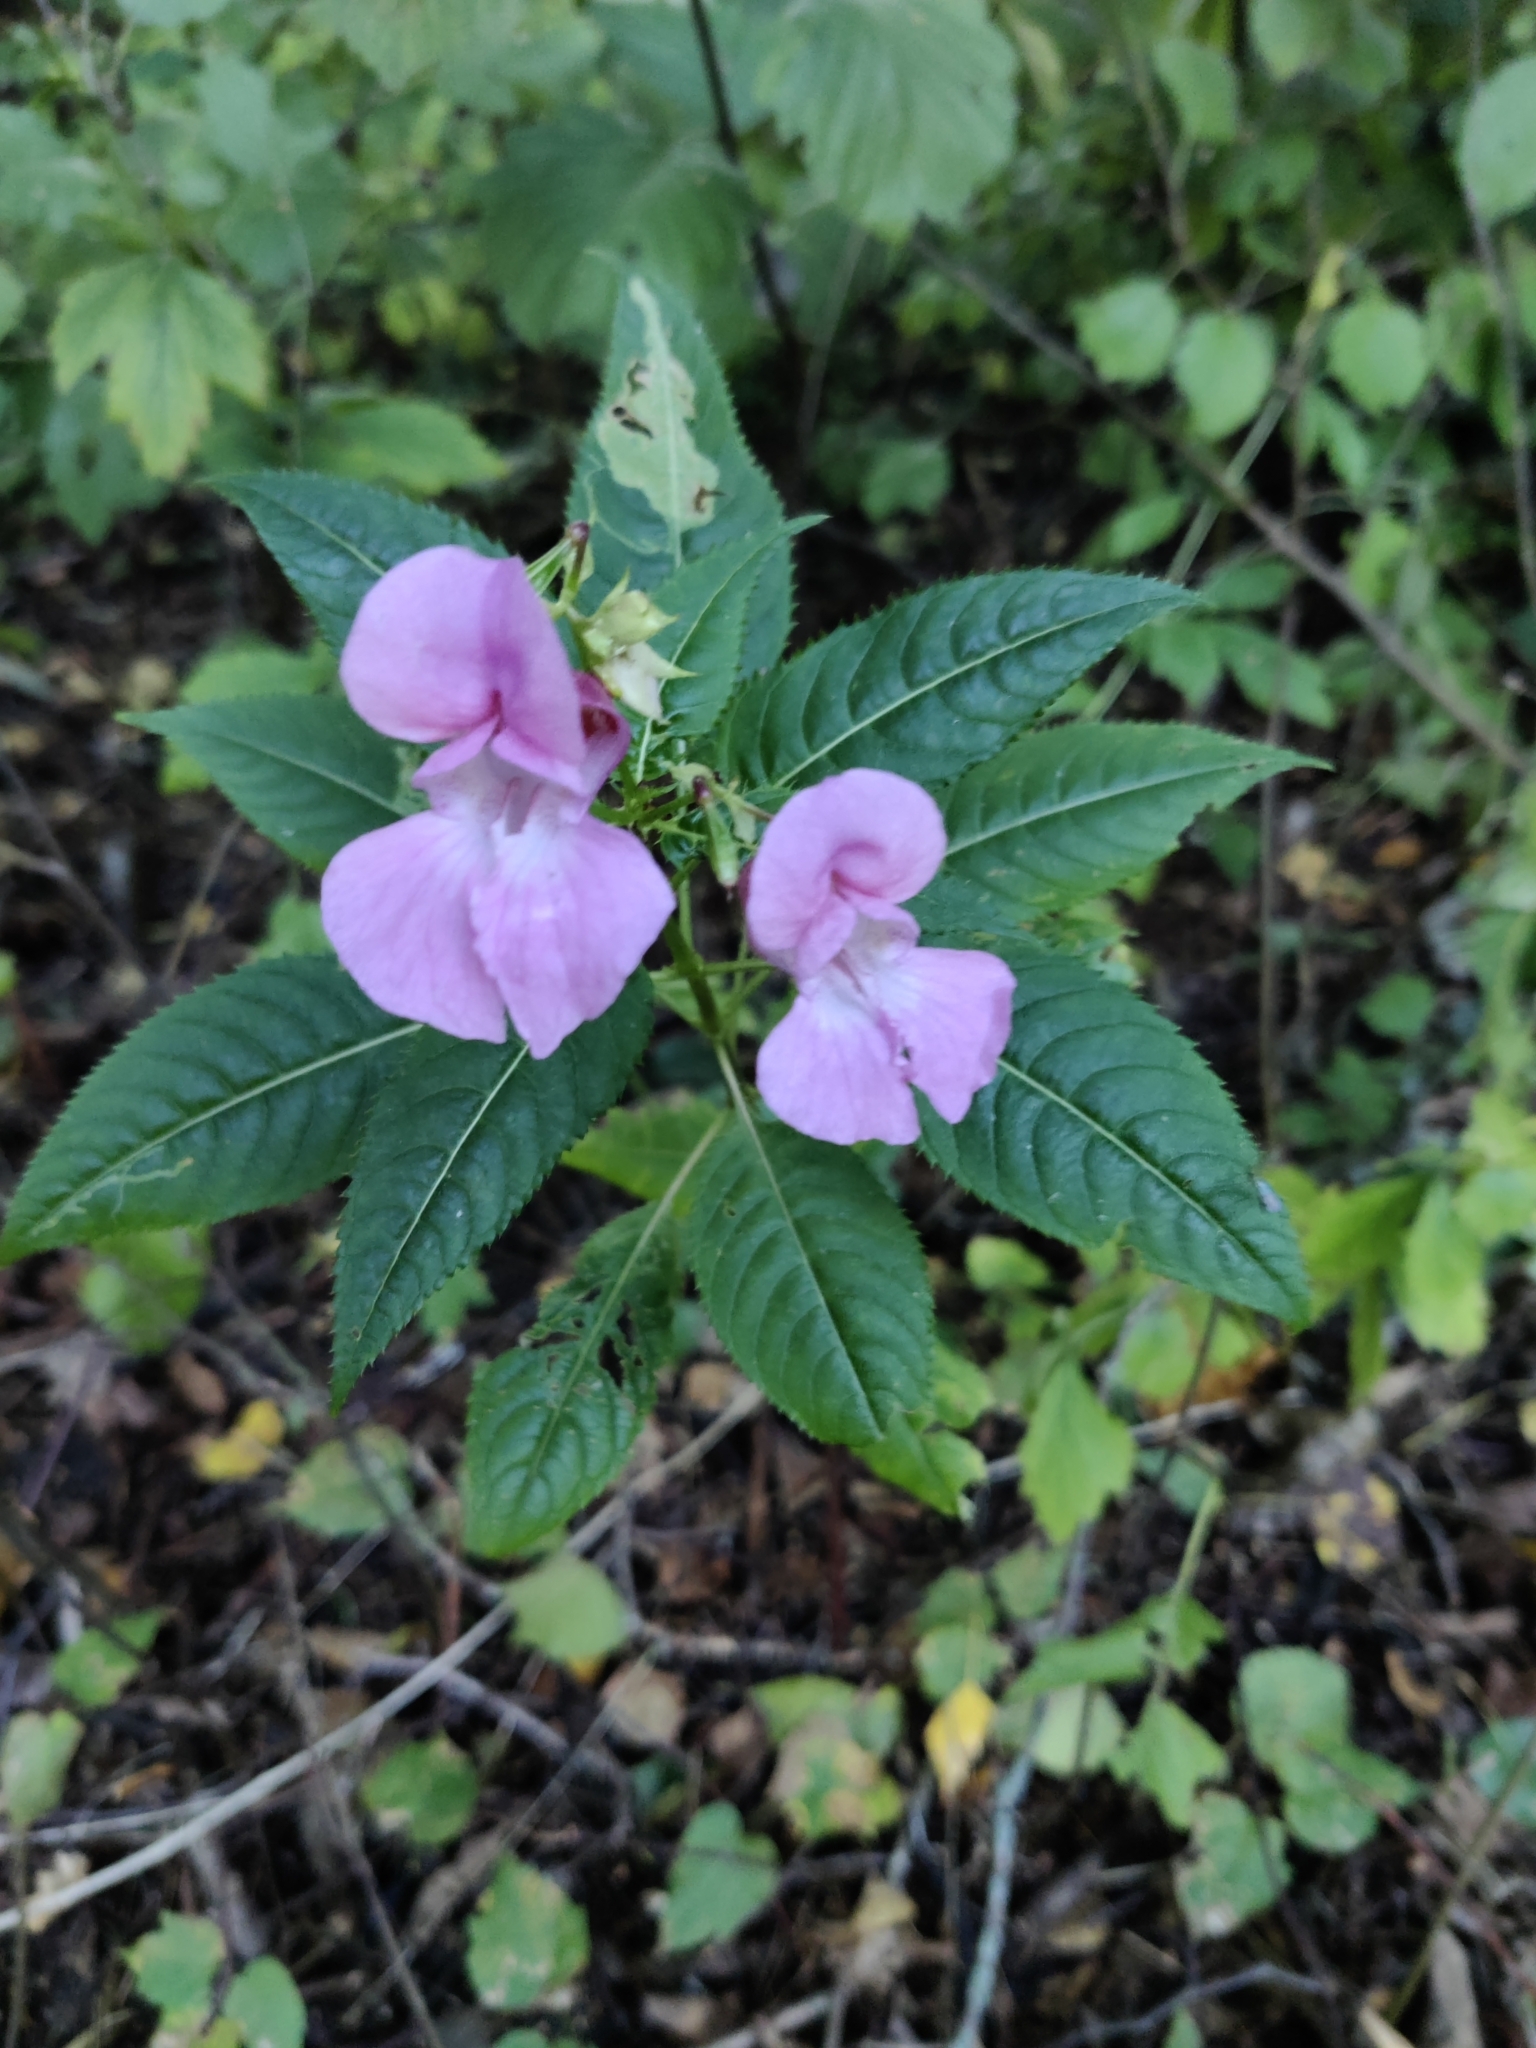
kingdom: Plantae
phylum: Tracheophyta
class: Magnoliopsida
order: Ericales
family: Balsaminaceae
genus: Impatiens
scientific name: Impatiens glandulifera
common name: Himalayan balsam
